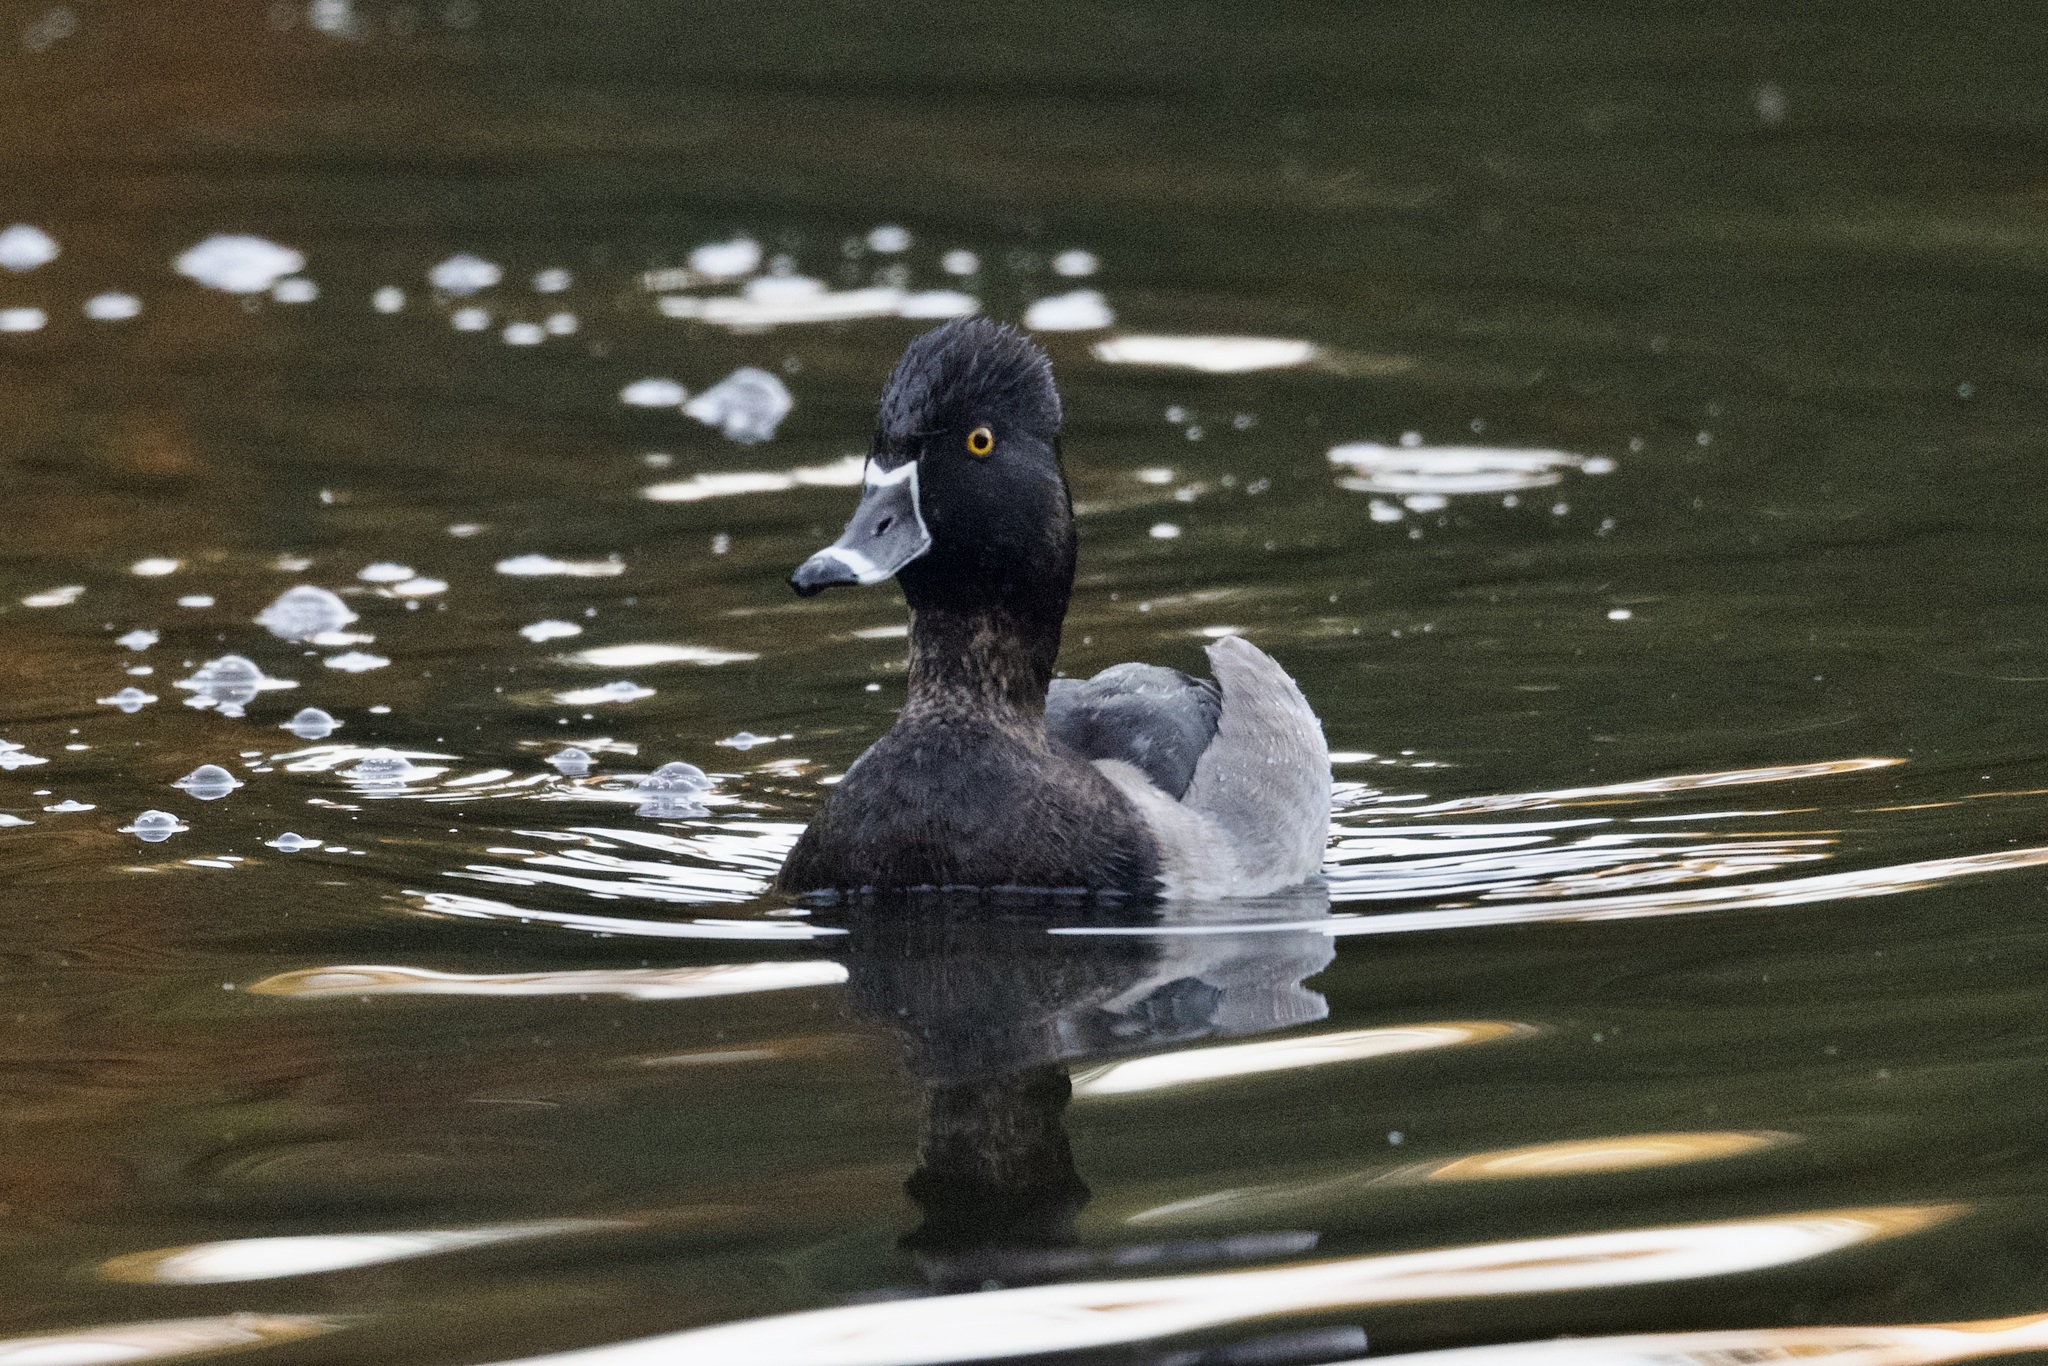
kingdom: Animalia
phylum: Chordata
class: Aves
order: Anseriformes
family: Anatidae
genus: Aythya
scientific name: Aythya collaris
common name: Ring-necked duck
